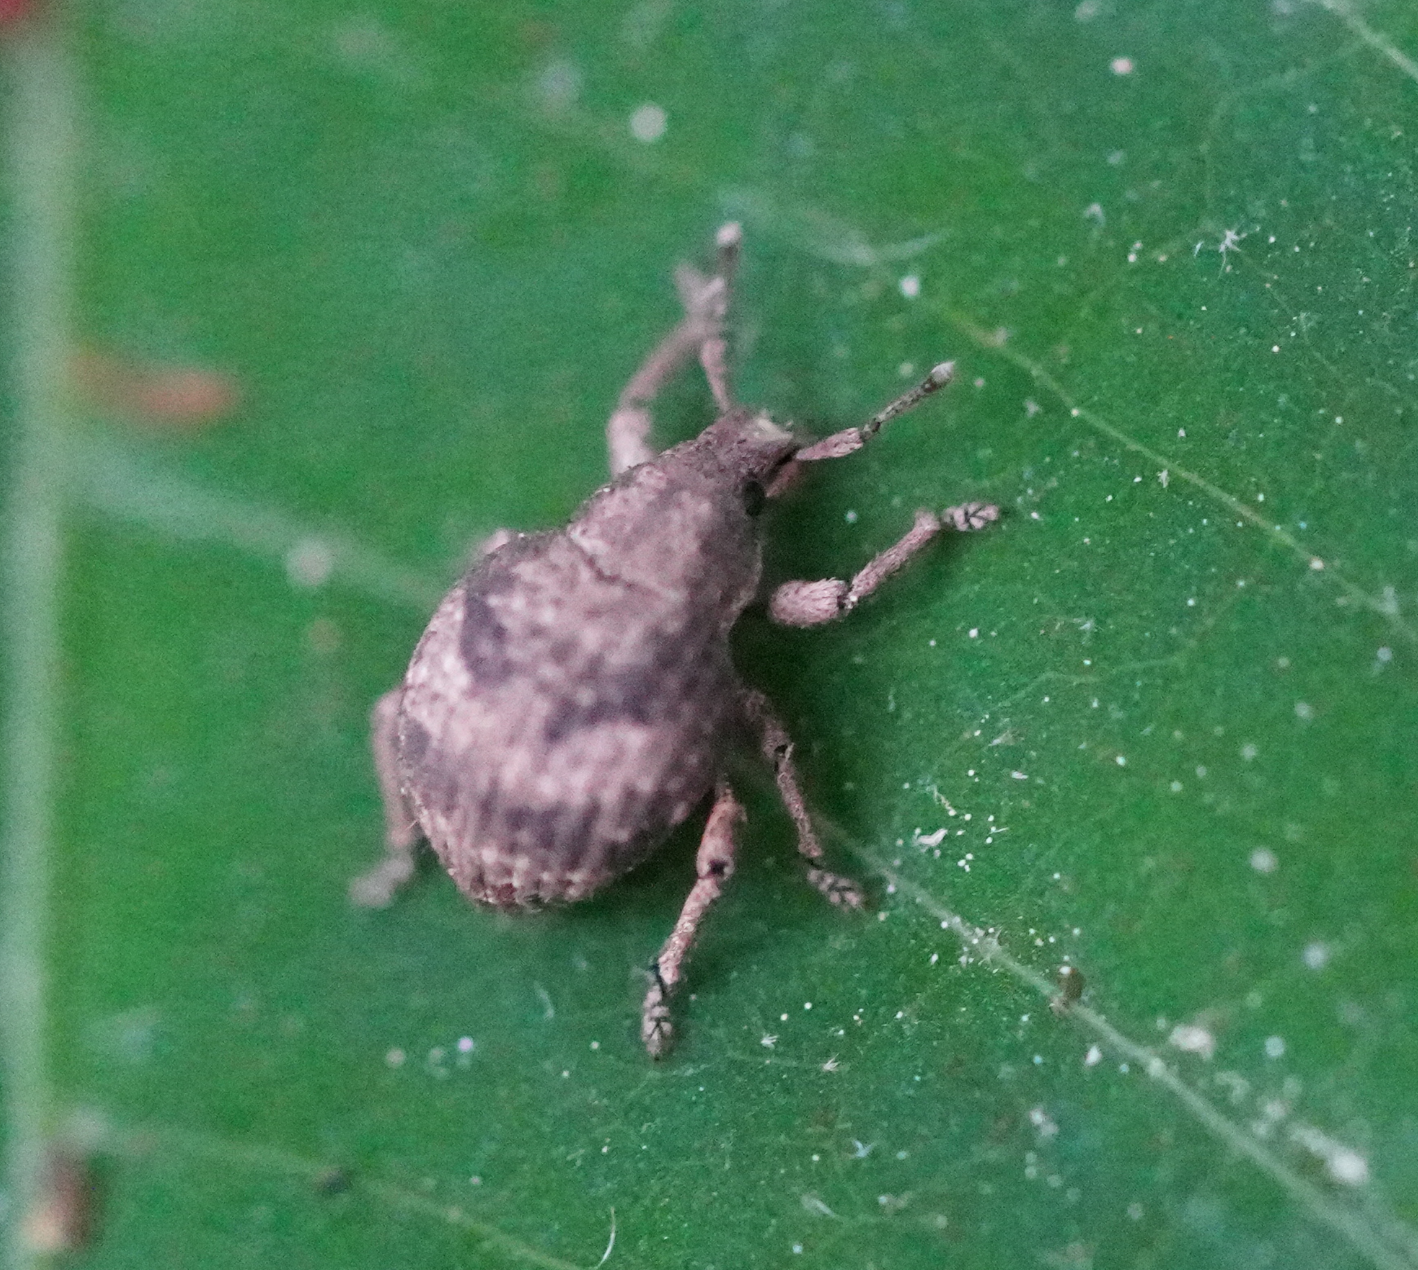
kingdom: Animalia
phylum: Arthropoda
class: Insecta
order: Coleoptera
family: Curculionidae
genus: Pseudocneorhinus
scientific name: Pseudocneorhinus bifasciatus
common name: Two-banded japanese weevil
